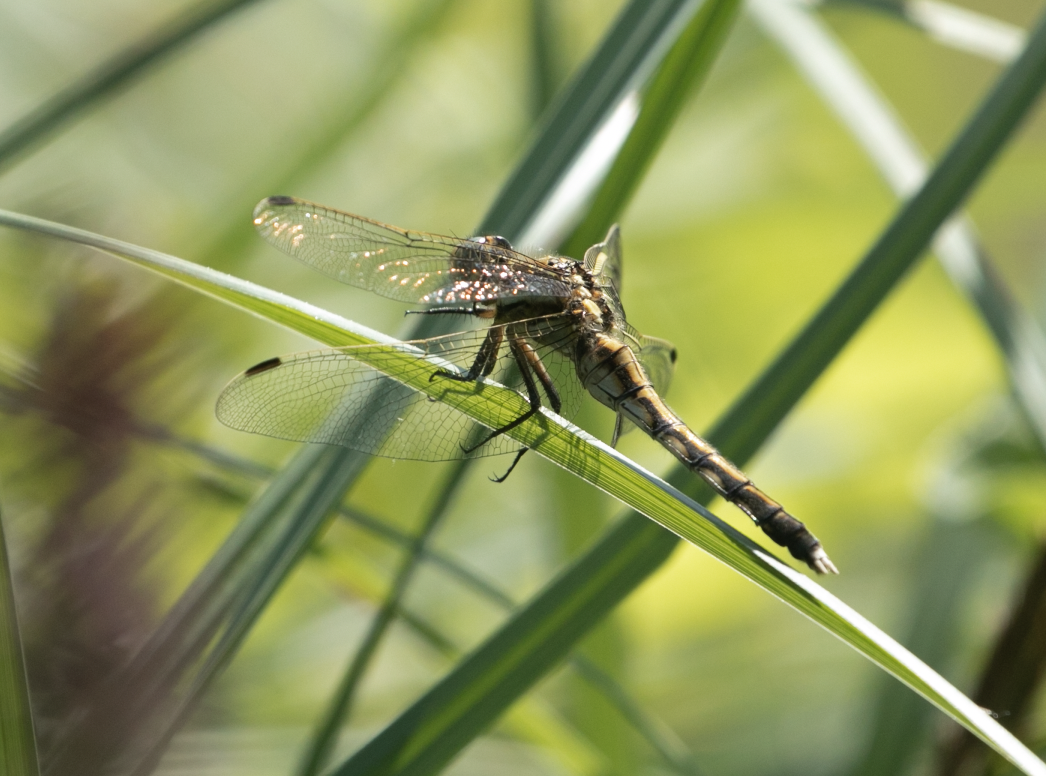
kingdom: Animalia
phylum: Arthropoda
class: Insecta
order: Odonata
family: Libellulidae
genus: Orthetrum
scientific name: Orthetrum albistylum
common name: White-tailed skimmer
